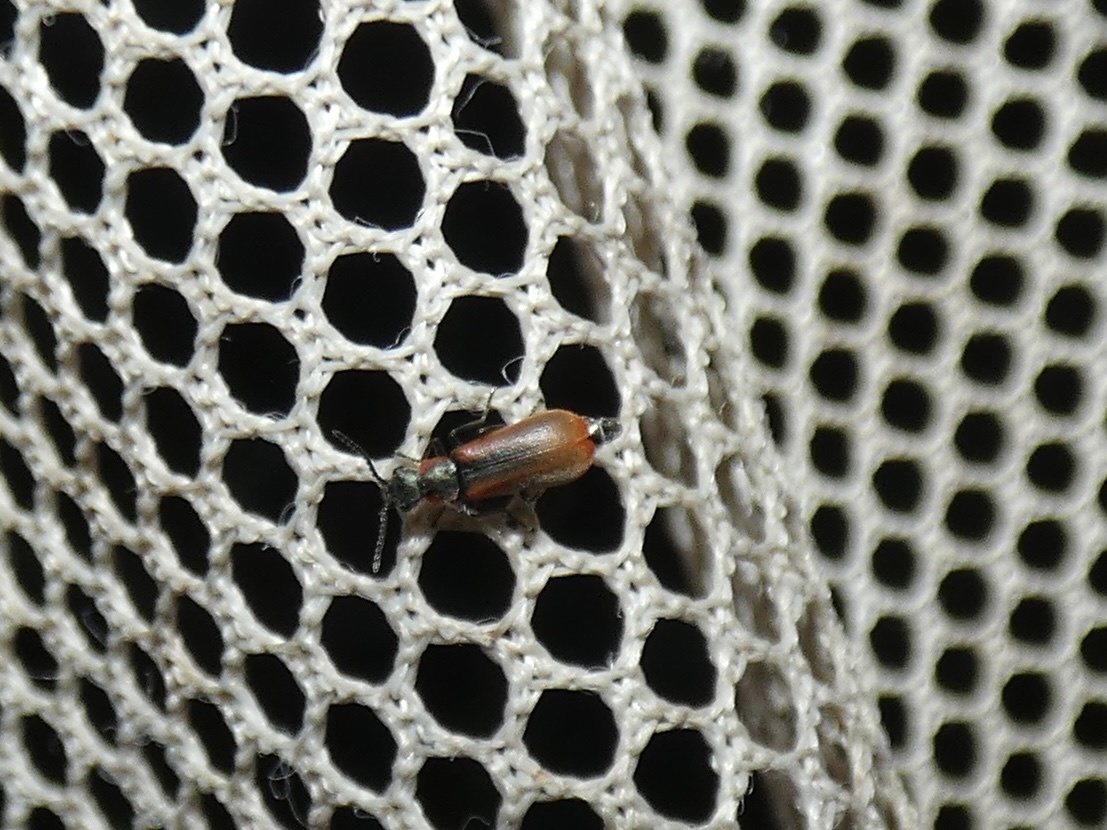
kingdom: Animalia
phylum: Arthropoda
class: Insecta
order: Coleoptera
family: Melyridae
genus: Anthocomus
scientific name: Anthocomus rufus
